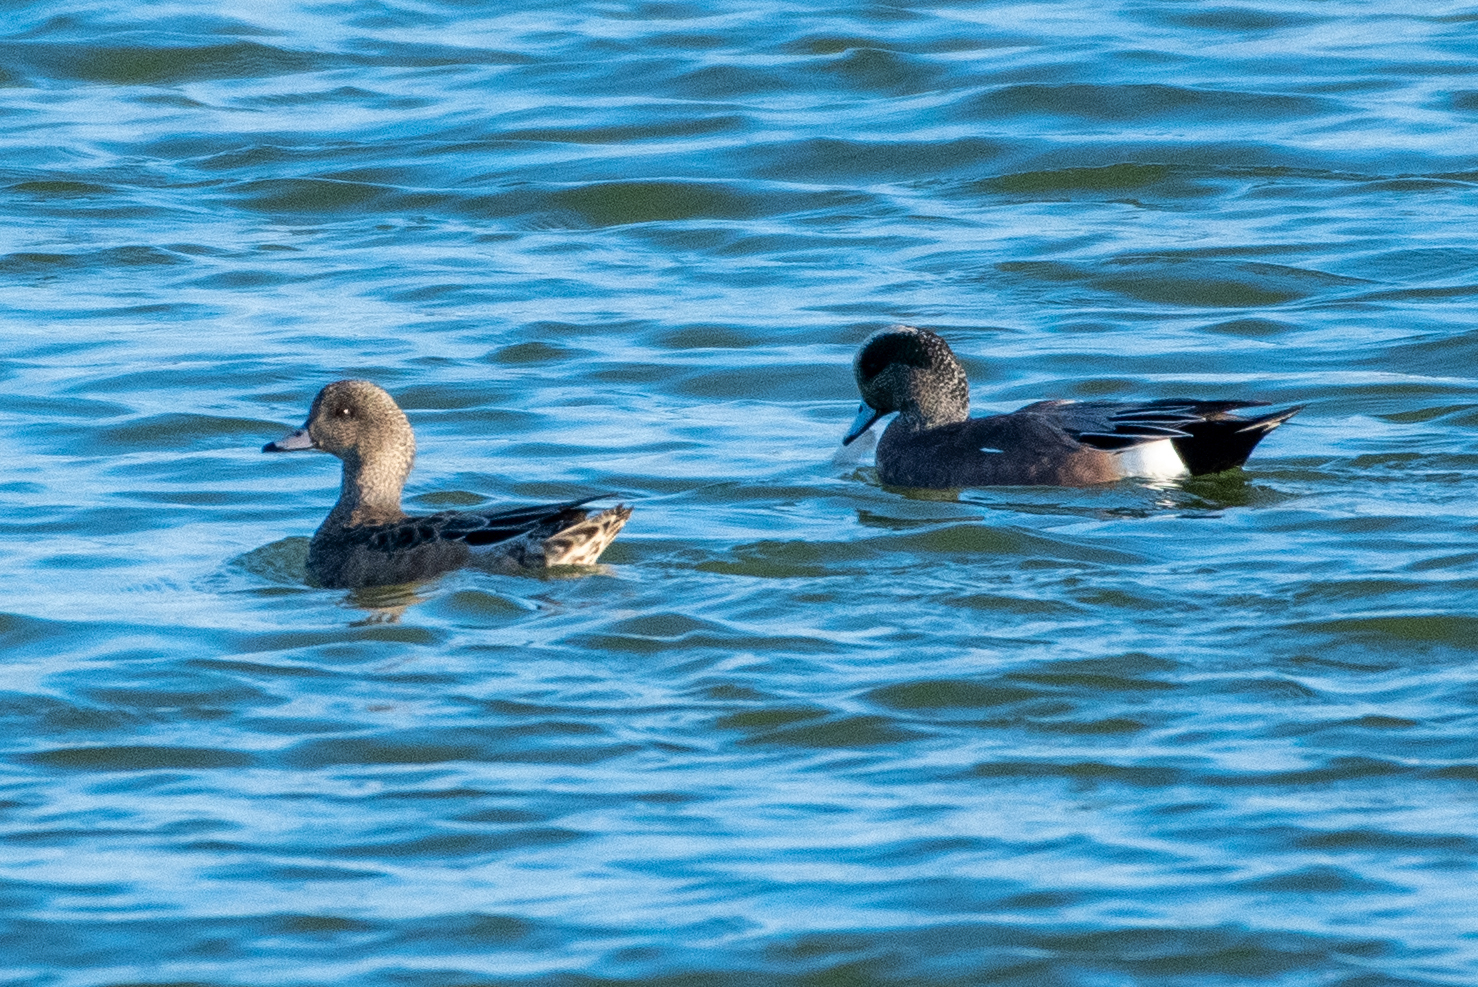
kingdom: Animalia
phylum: Chordata
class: Aves
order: Anseriformes
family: Anatidae
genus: Mareca
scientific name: Mareca americana
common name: American wigeon
